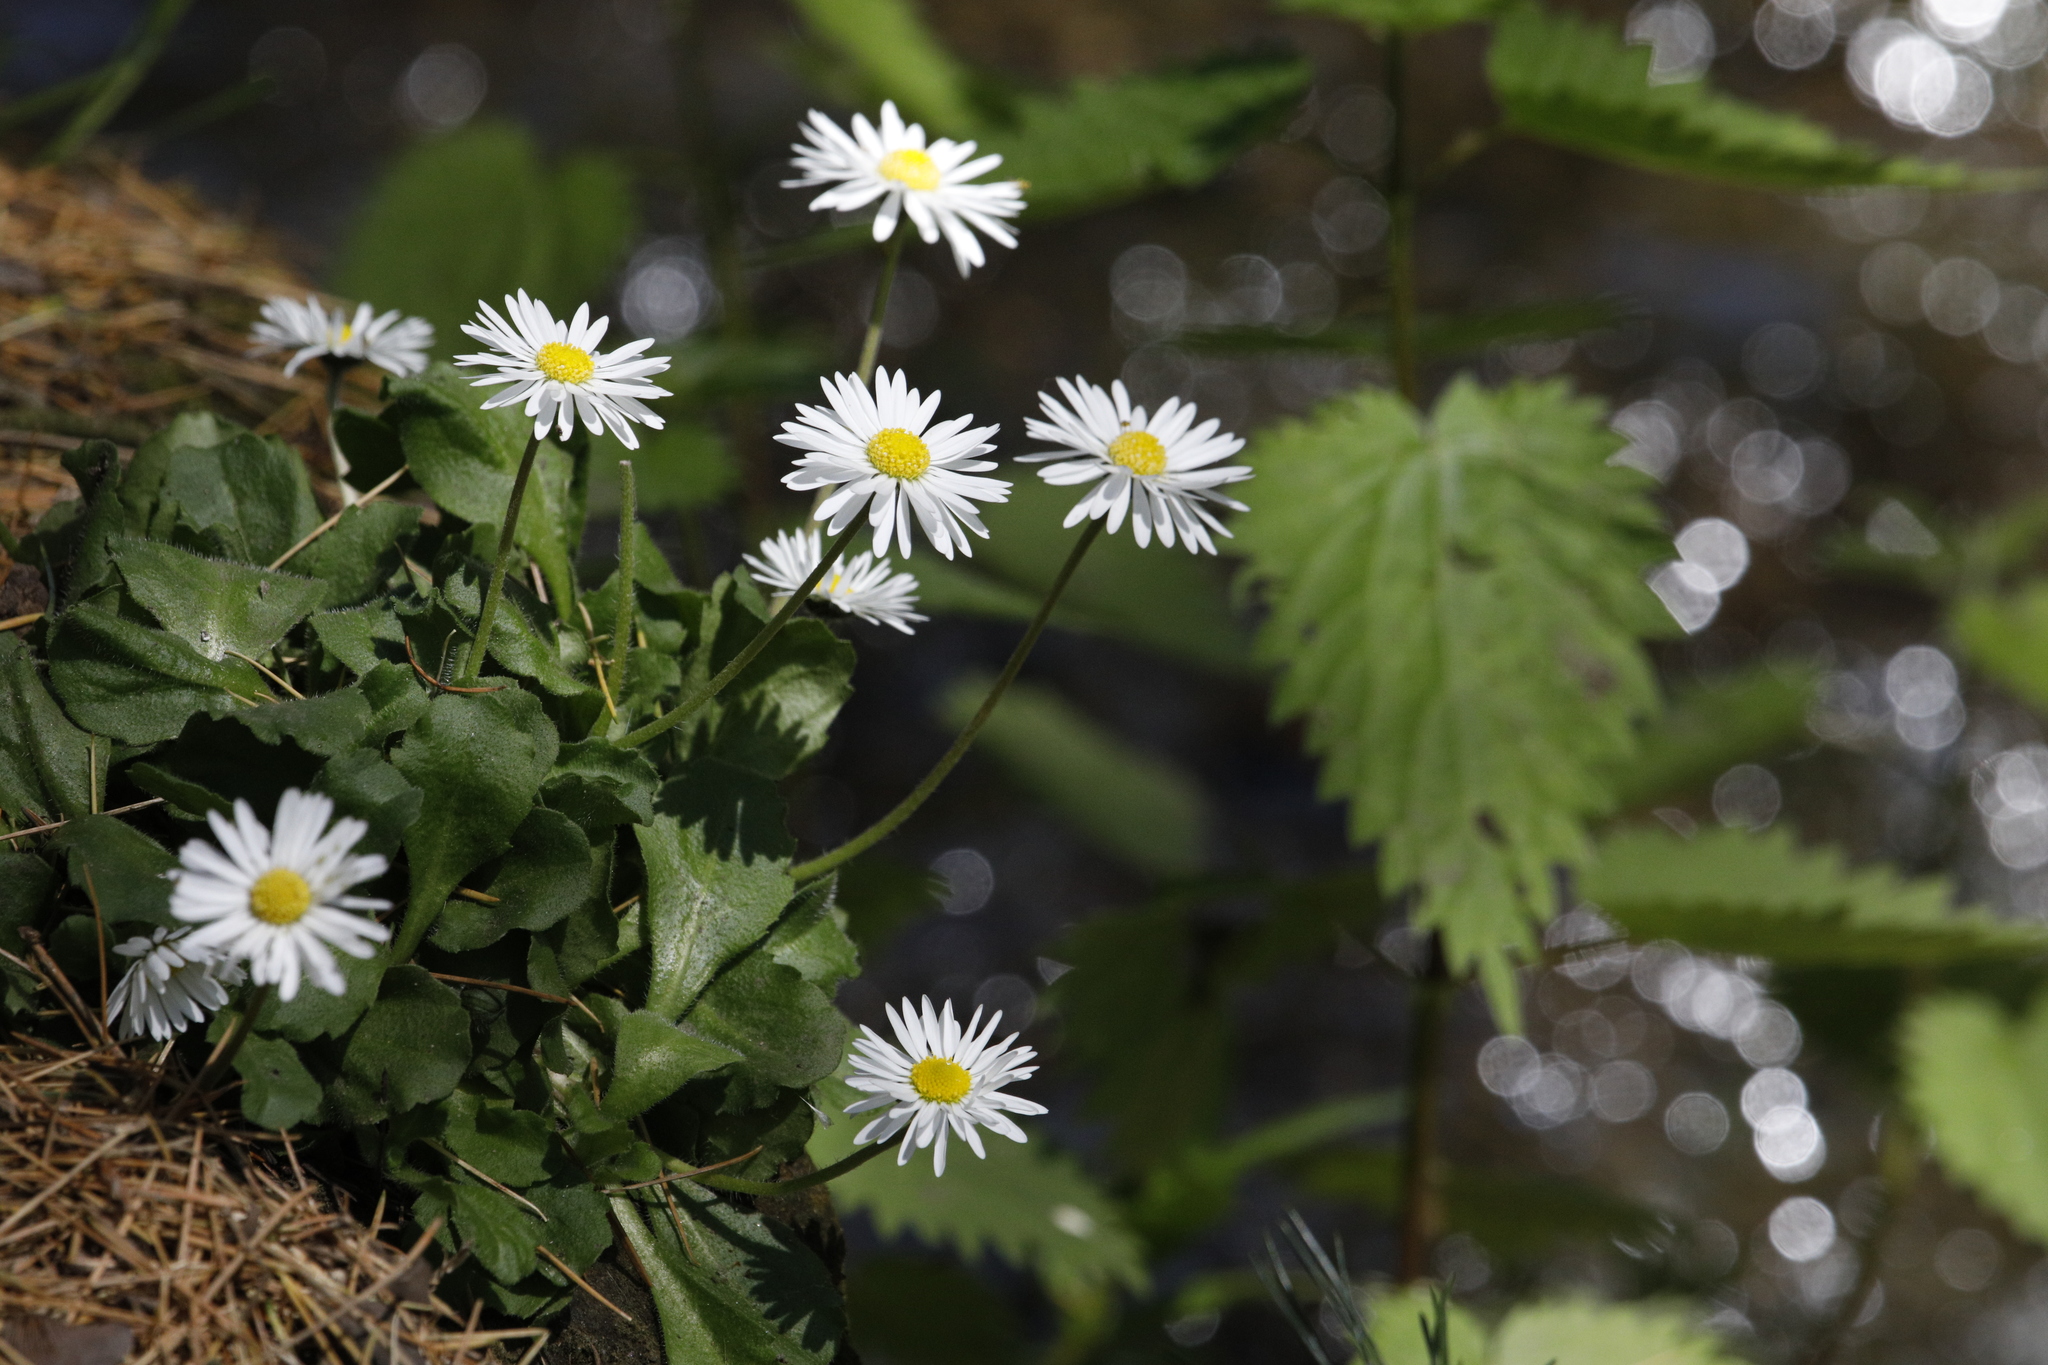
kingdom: Plantae
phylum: Tracheophyta
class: Magnoliopsida
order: Asterales
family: Asteraceae
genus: Bellis
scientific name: Bellis perennis
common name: Lawndaisy
